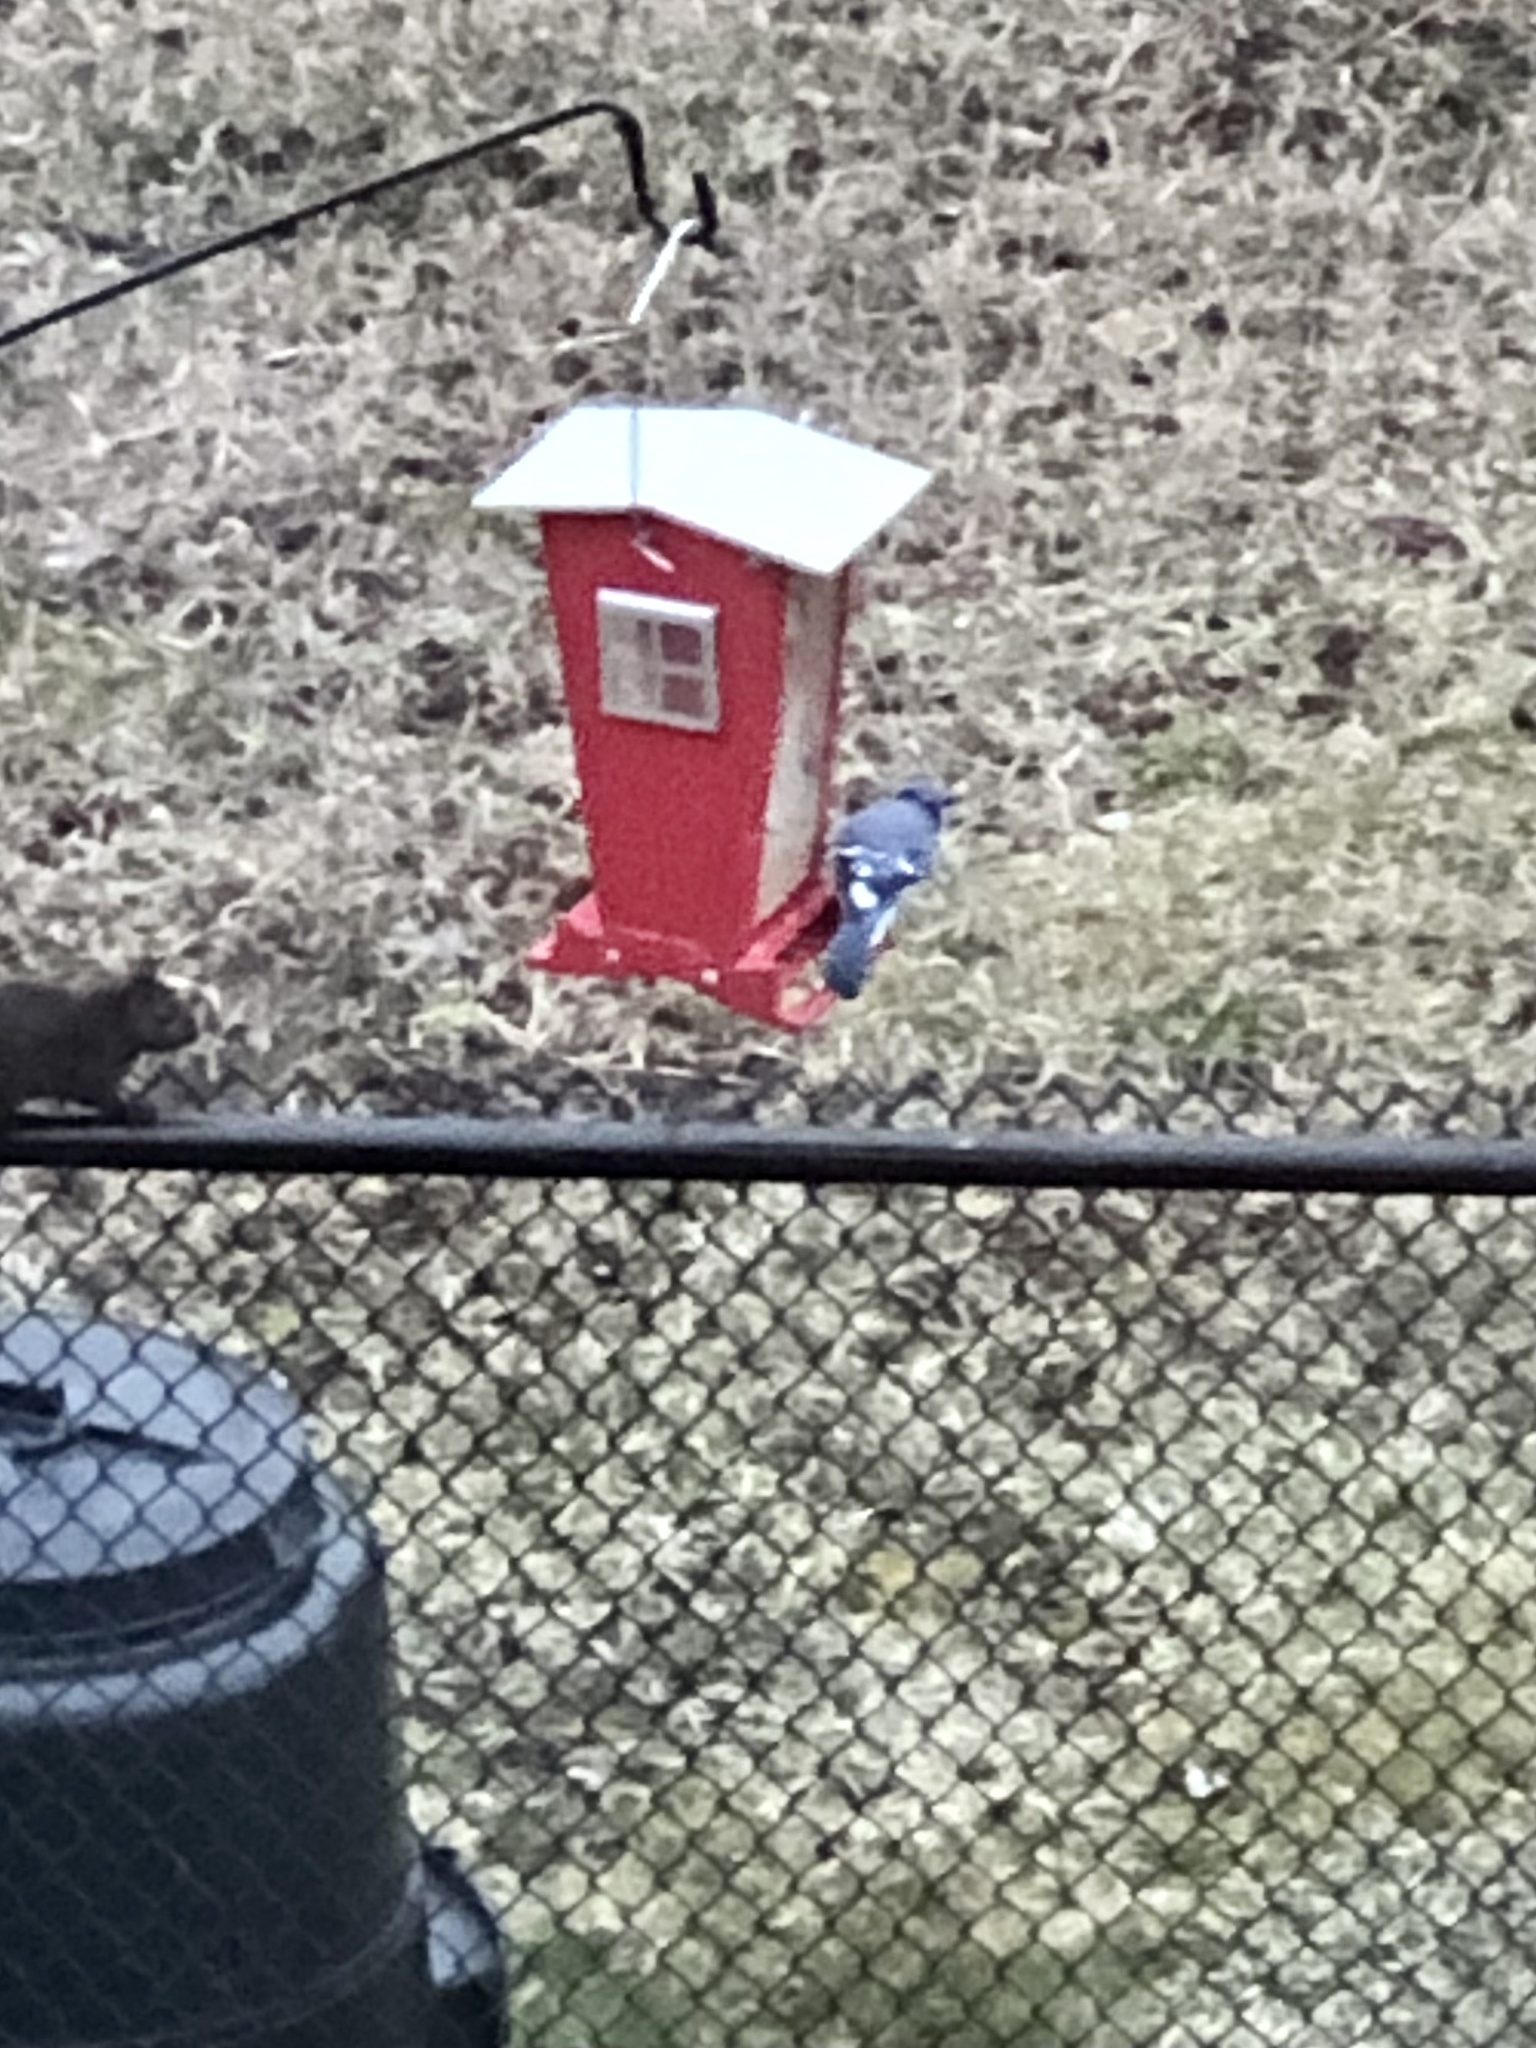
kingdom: Animalia
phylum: Chordata
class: Aves
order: Passeriformes
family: Corvidae
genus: Cyanocitta
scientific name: Cyanocitta cristata
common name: Blue jay
